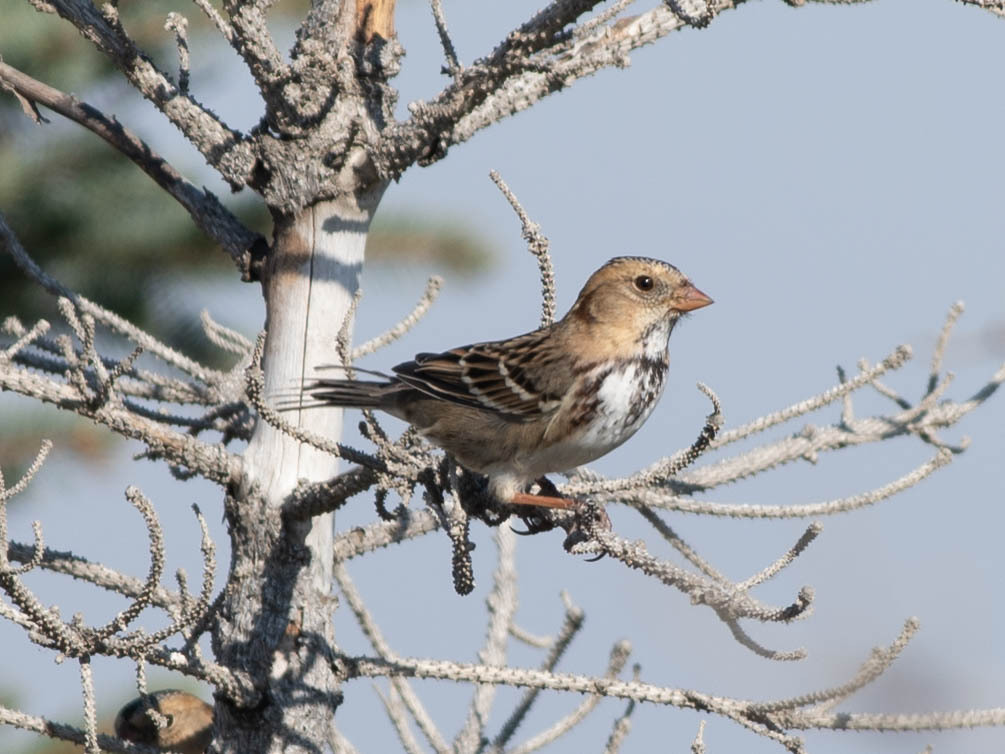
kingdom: Animalia
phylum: Chordata
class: Aves
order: Passeriformes
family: Passerellidae
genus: Zonotrichia
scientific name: Zonotrichia querula
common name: Harris's sparrow
